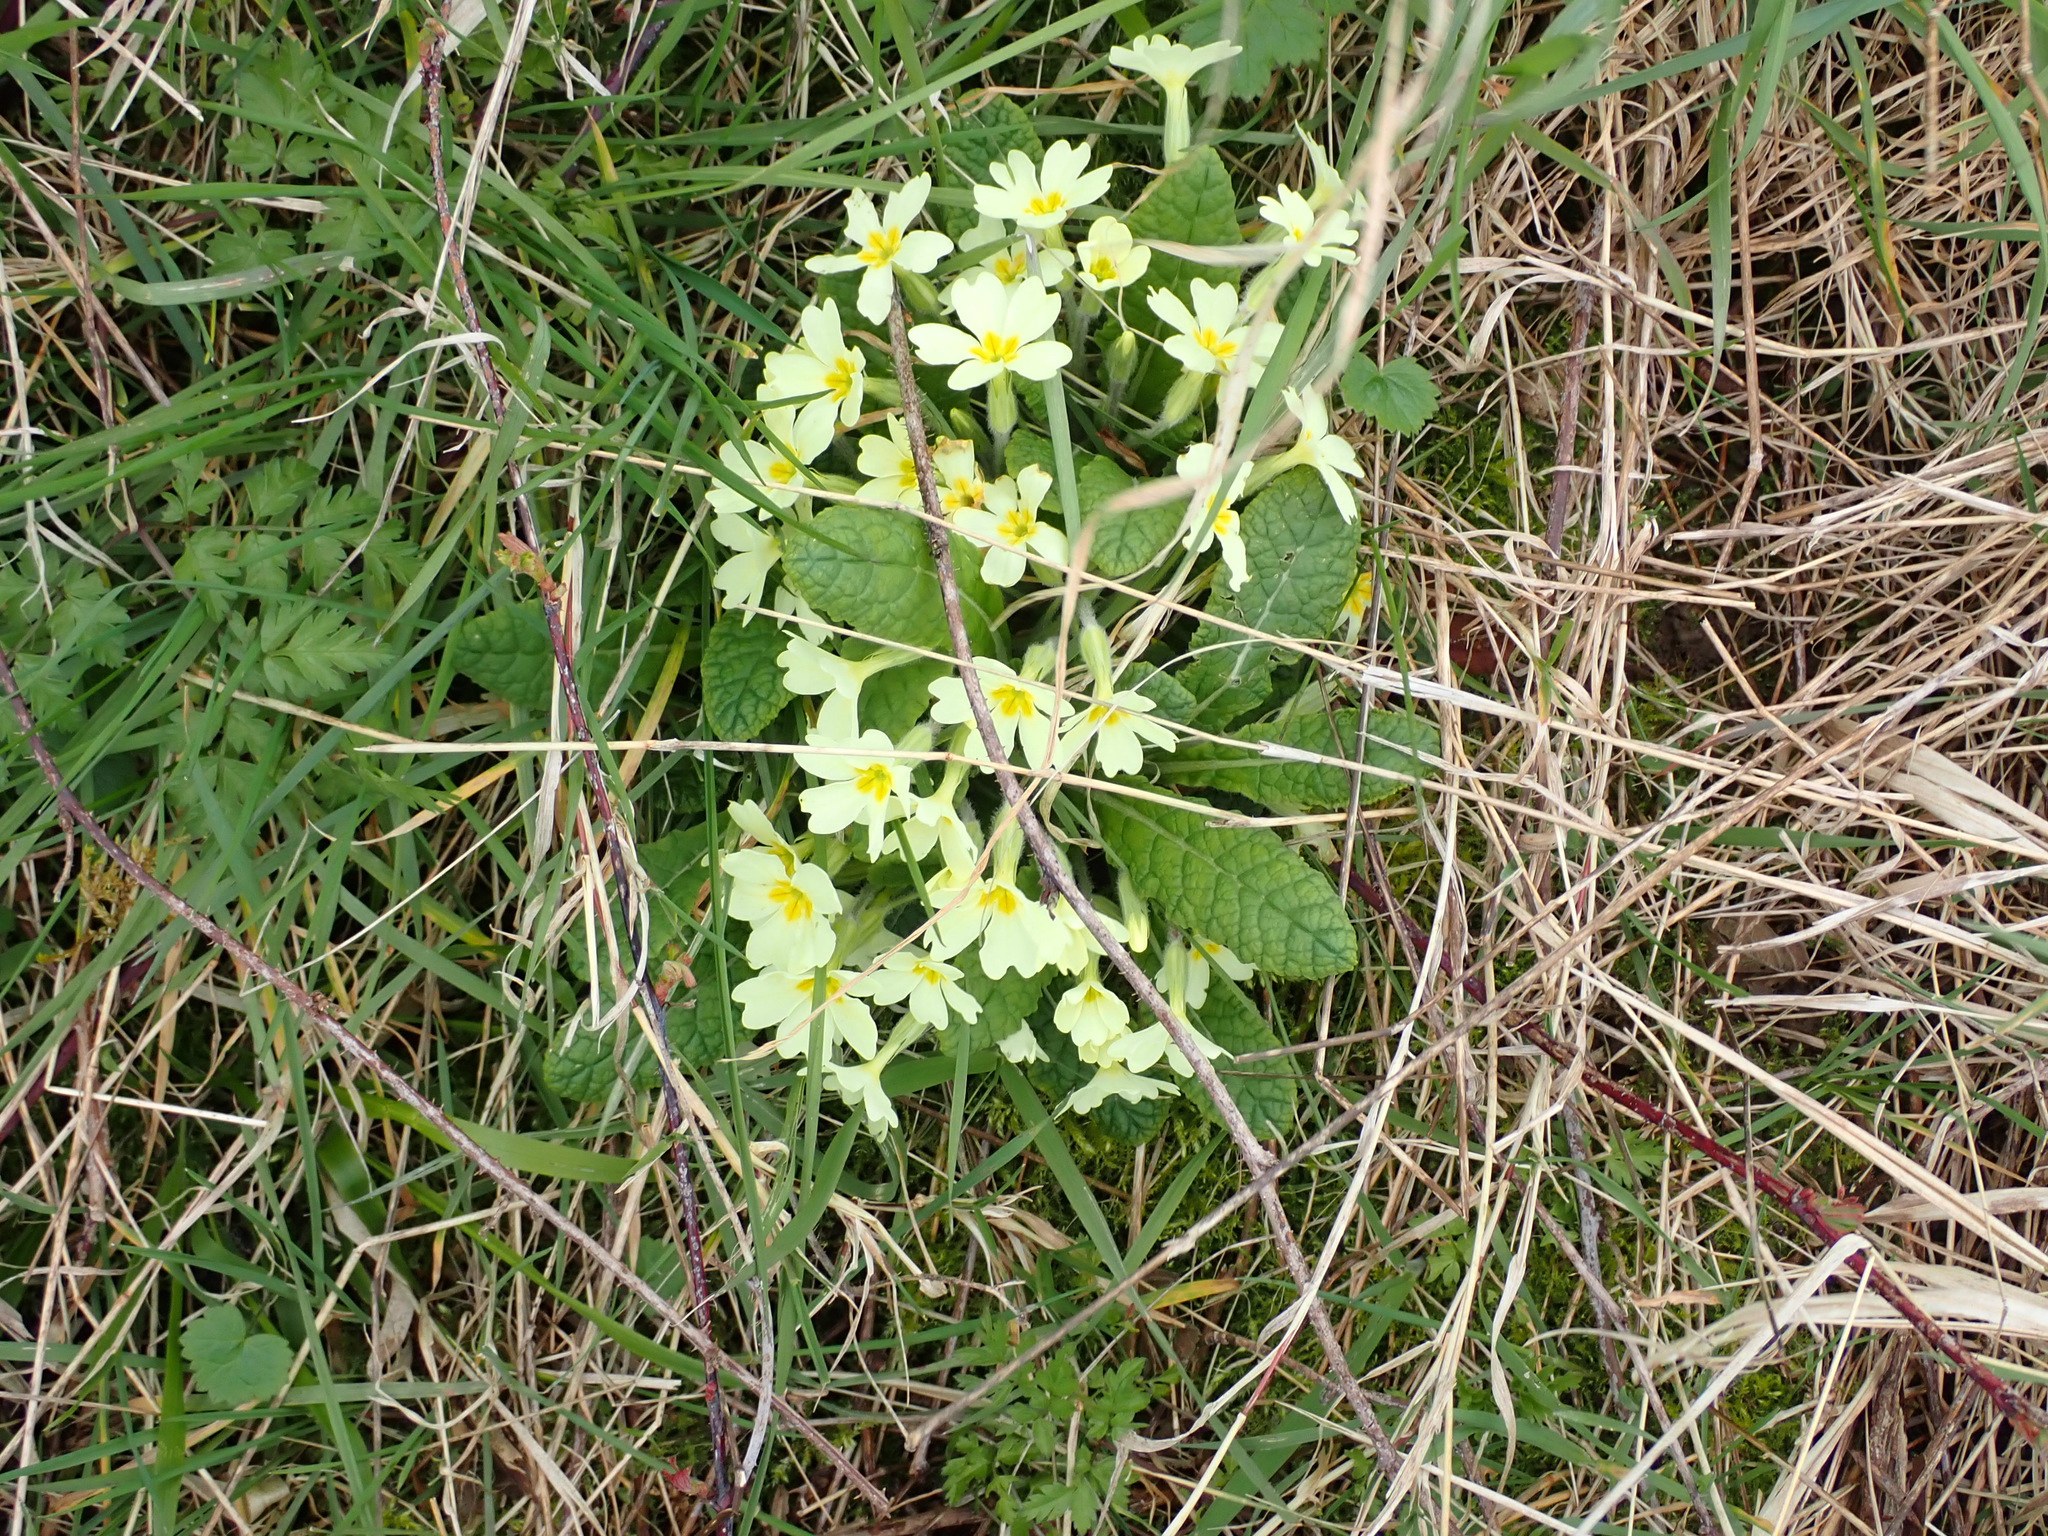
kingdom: Plantae
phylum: Tracheophyta
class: Magnoliopsida
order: Ericales
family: Primulaceae
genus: Primula
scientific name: Primula vulgaris
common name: Primrose
